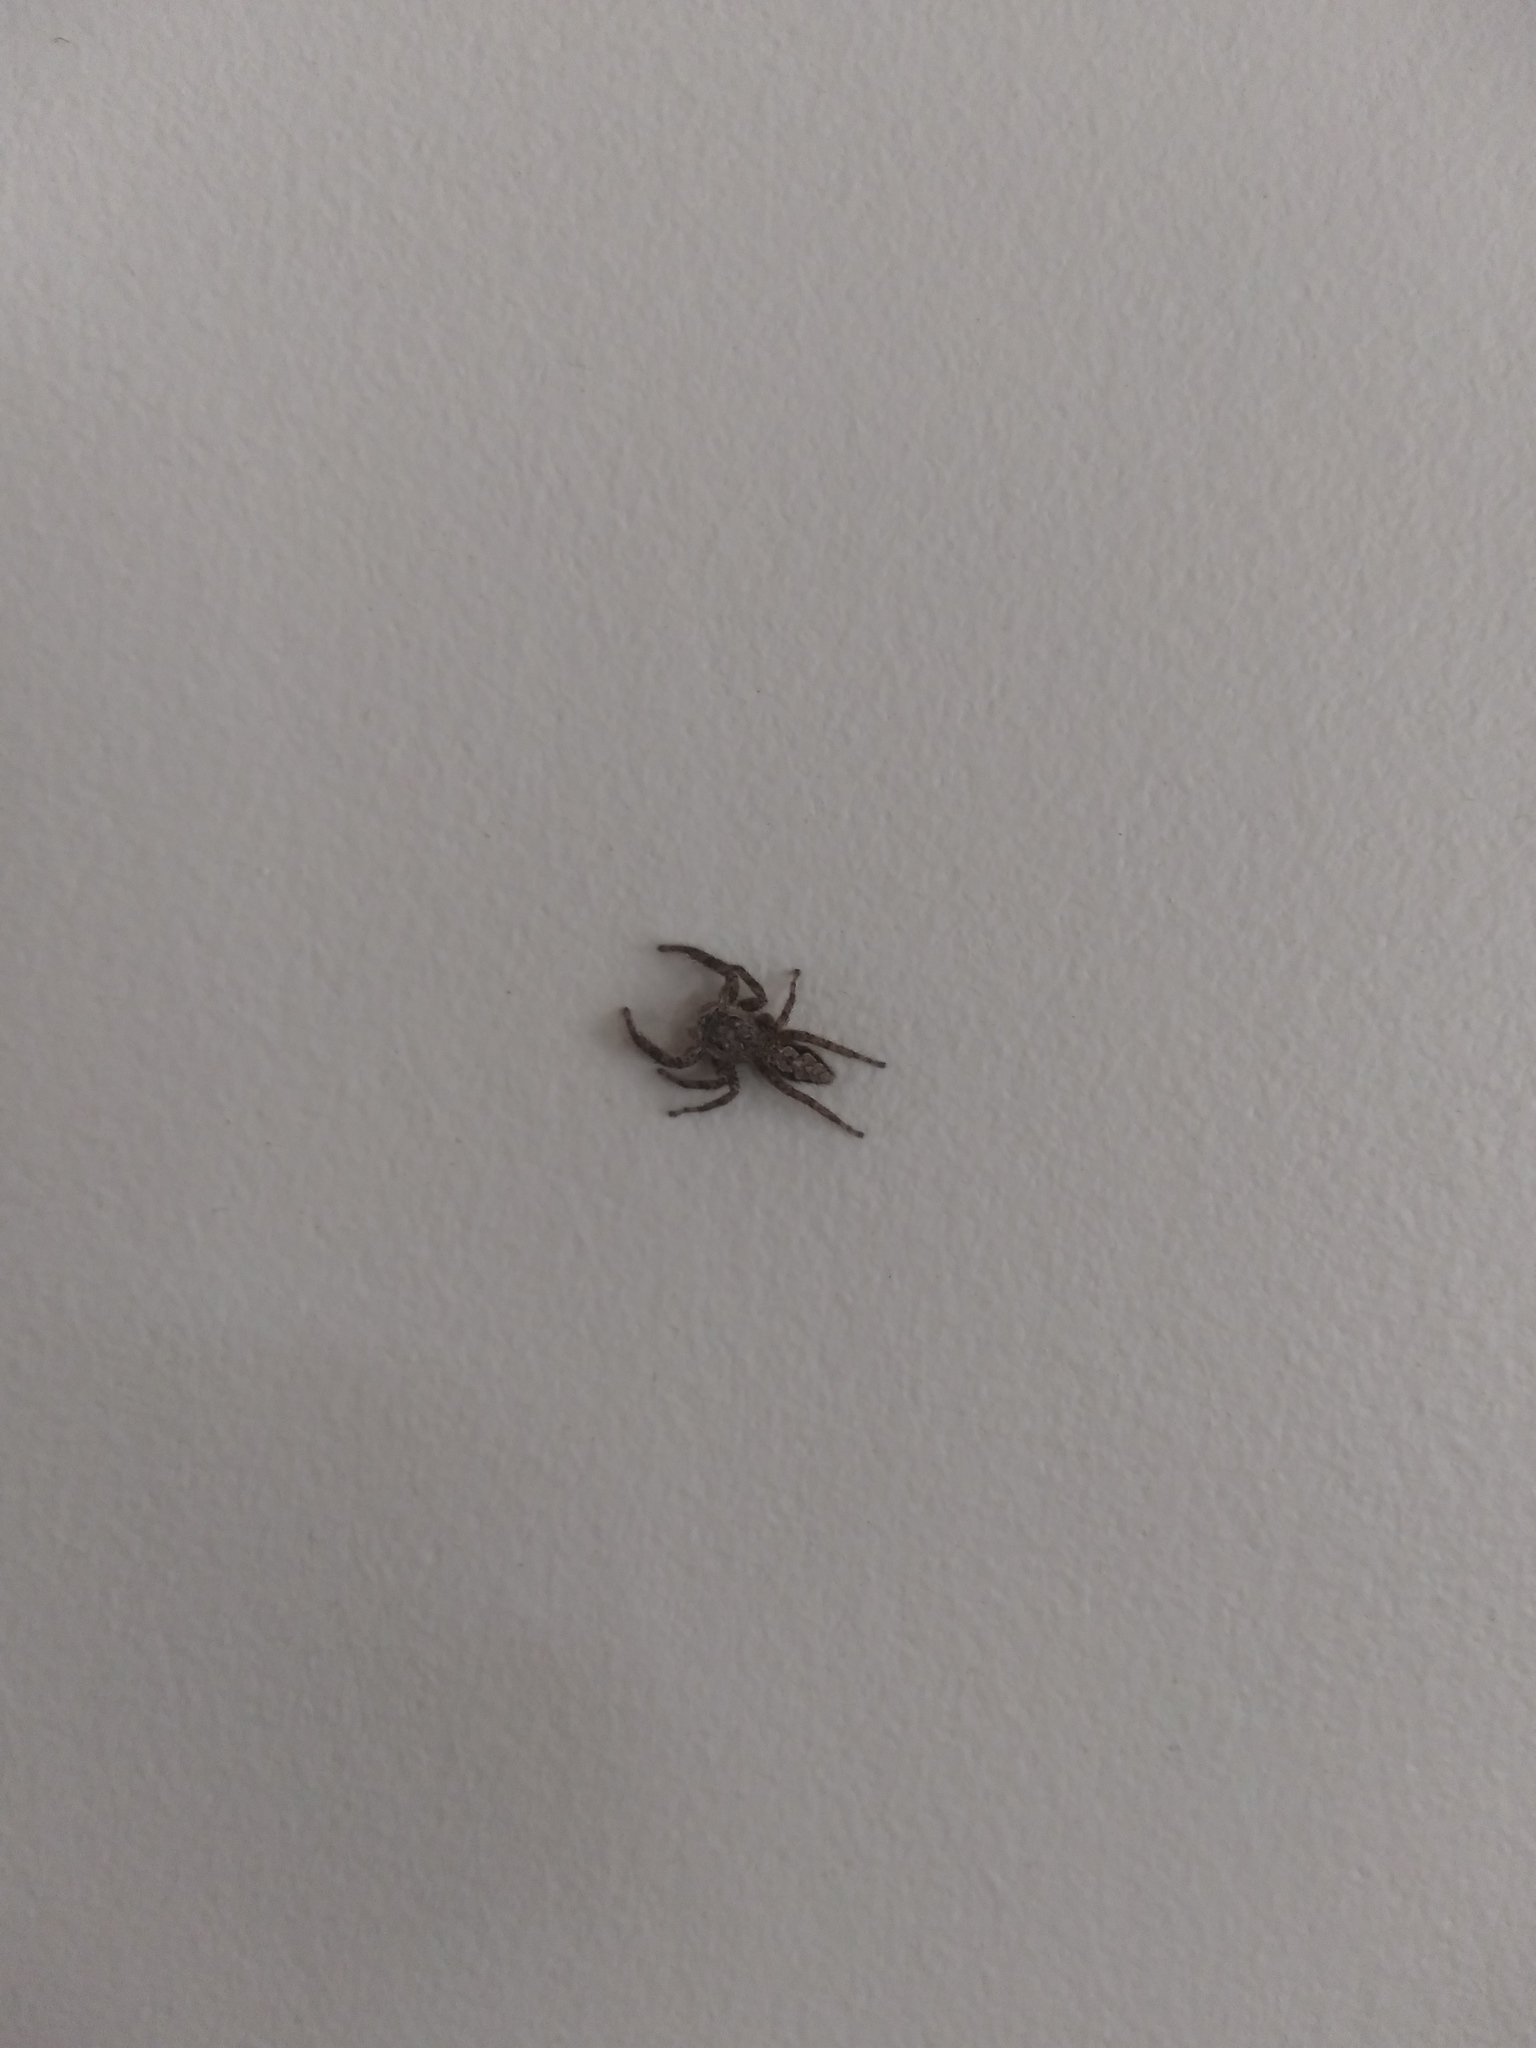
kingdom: Animalia
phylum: Arthropoda
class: Arachnida
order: Araneae
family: Salticidae
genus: Platycryptus
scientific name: Platycryptus undatus
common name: Tan jumping spider
